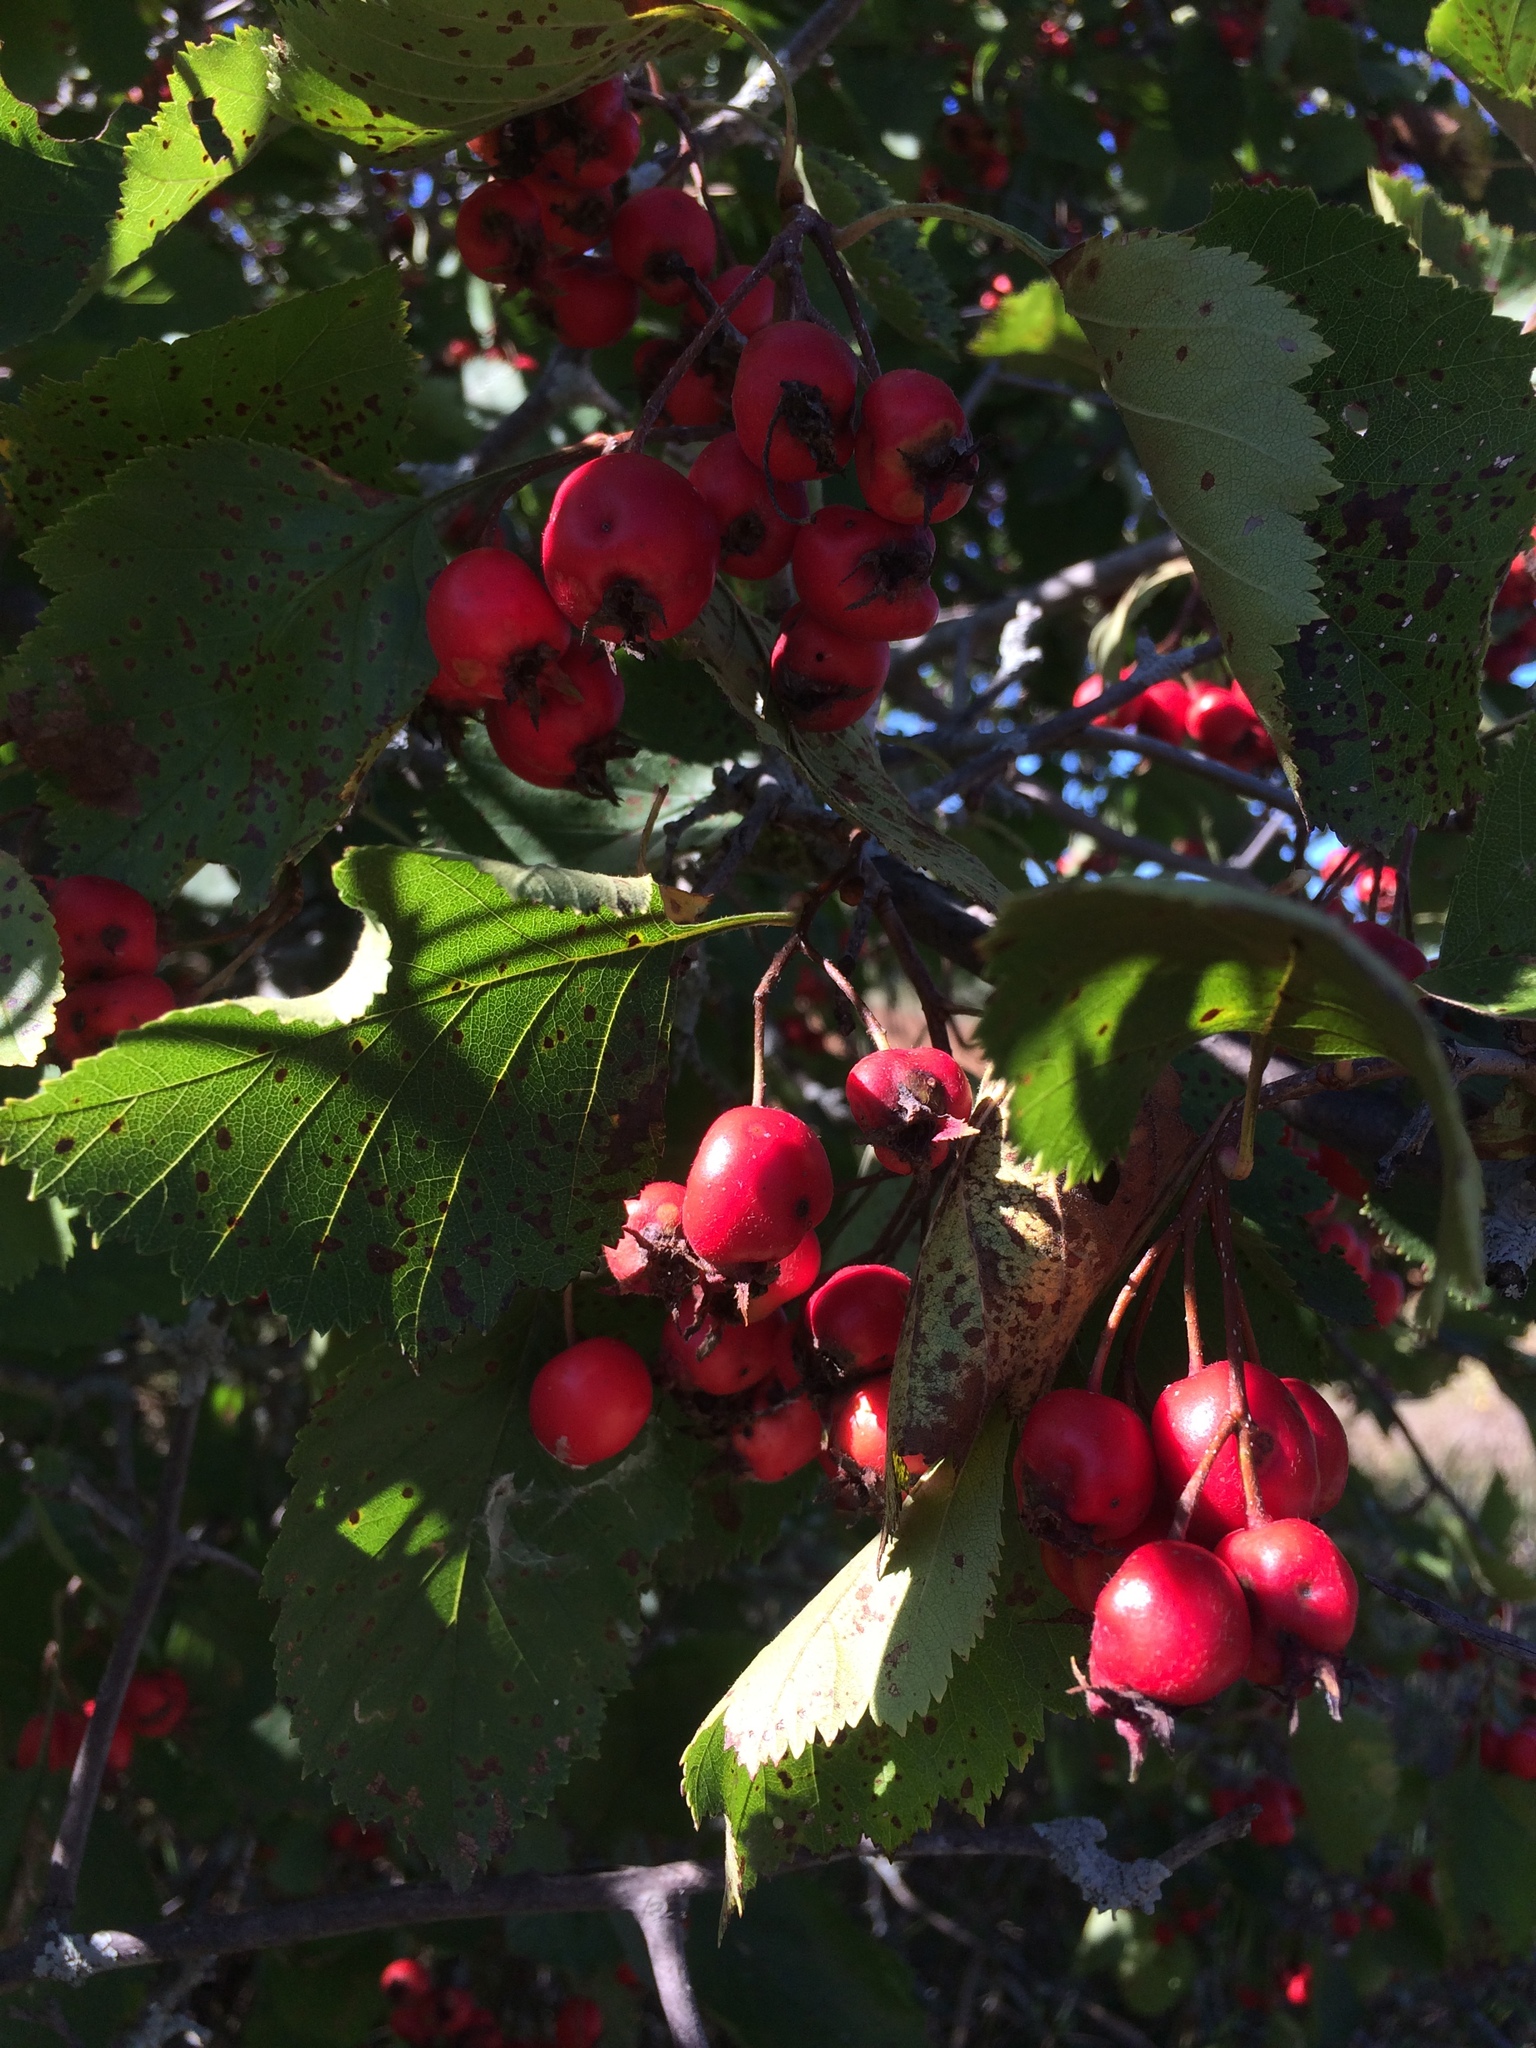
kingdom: Plantae
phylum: Tracheophyta
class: Magnoliopsida
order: Rosales
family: Rosaceae
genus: Crataegus
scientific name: Crataegus submollis
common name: Hairy cockspurthorn
